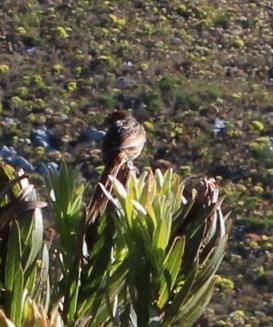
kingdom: Animalia
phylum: Chordata
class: Aves
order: Passeriformes
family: Macrosphenidae
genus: Sphenoeacus
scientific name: Sphenoeacus afer
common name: Cape grassbird
